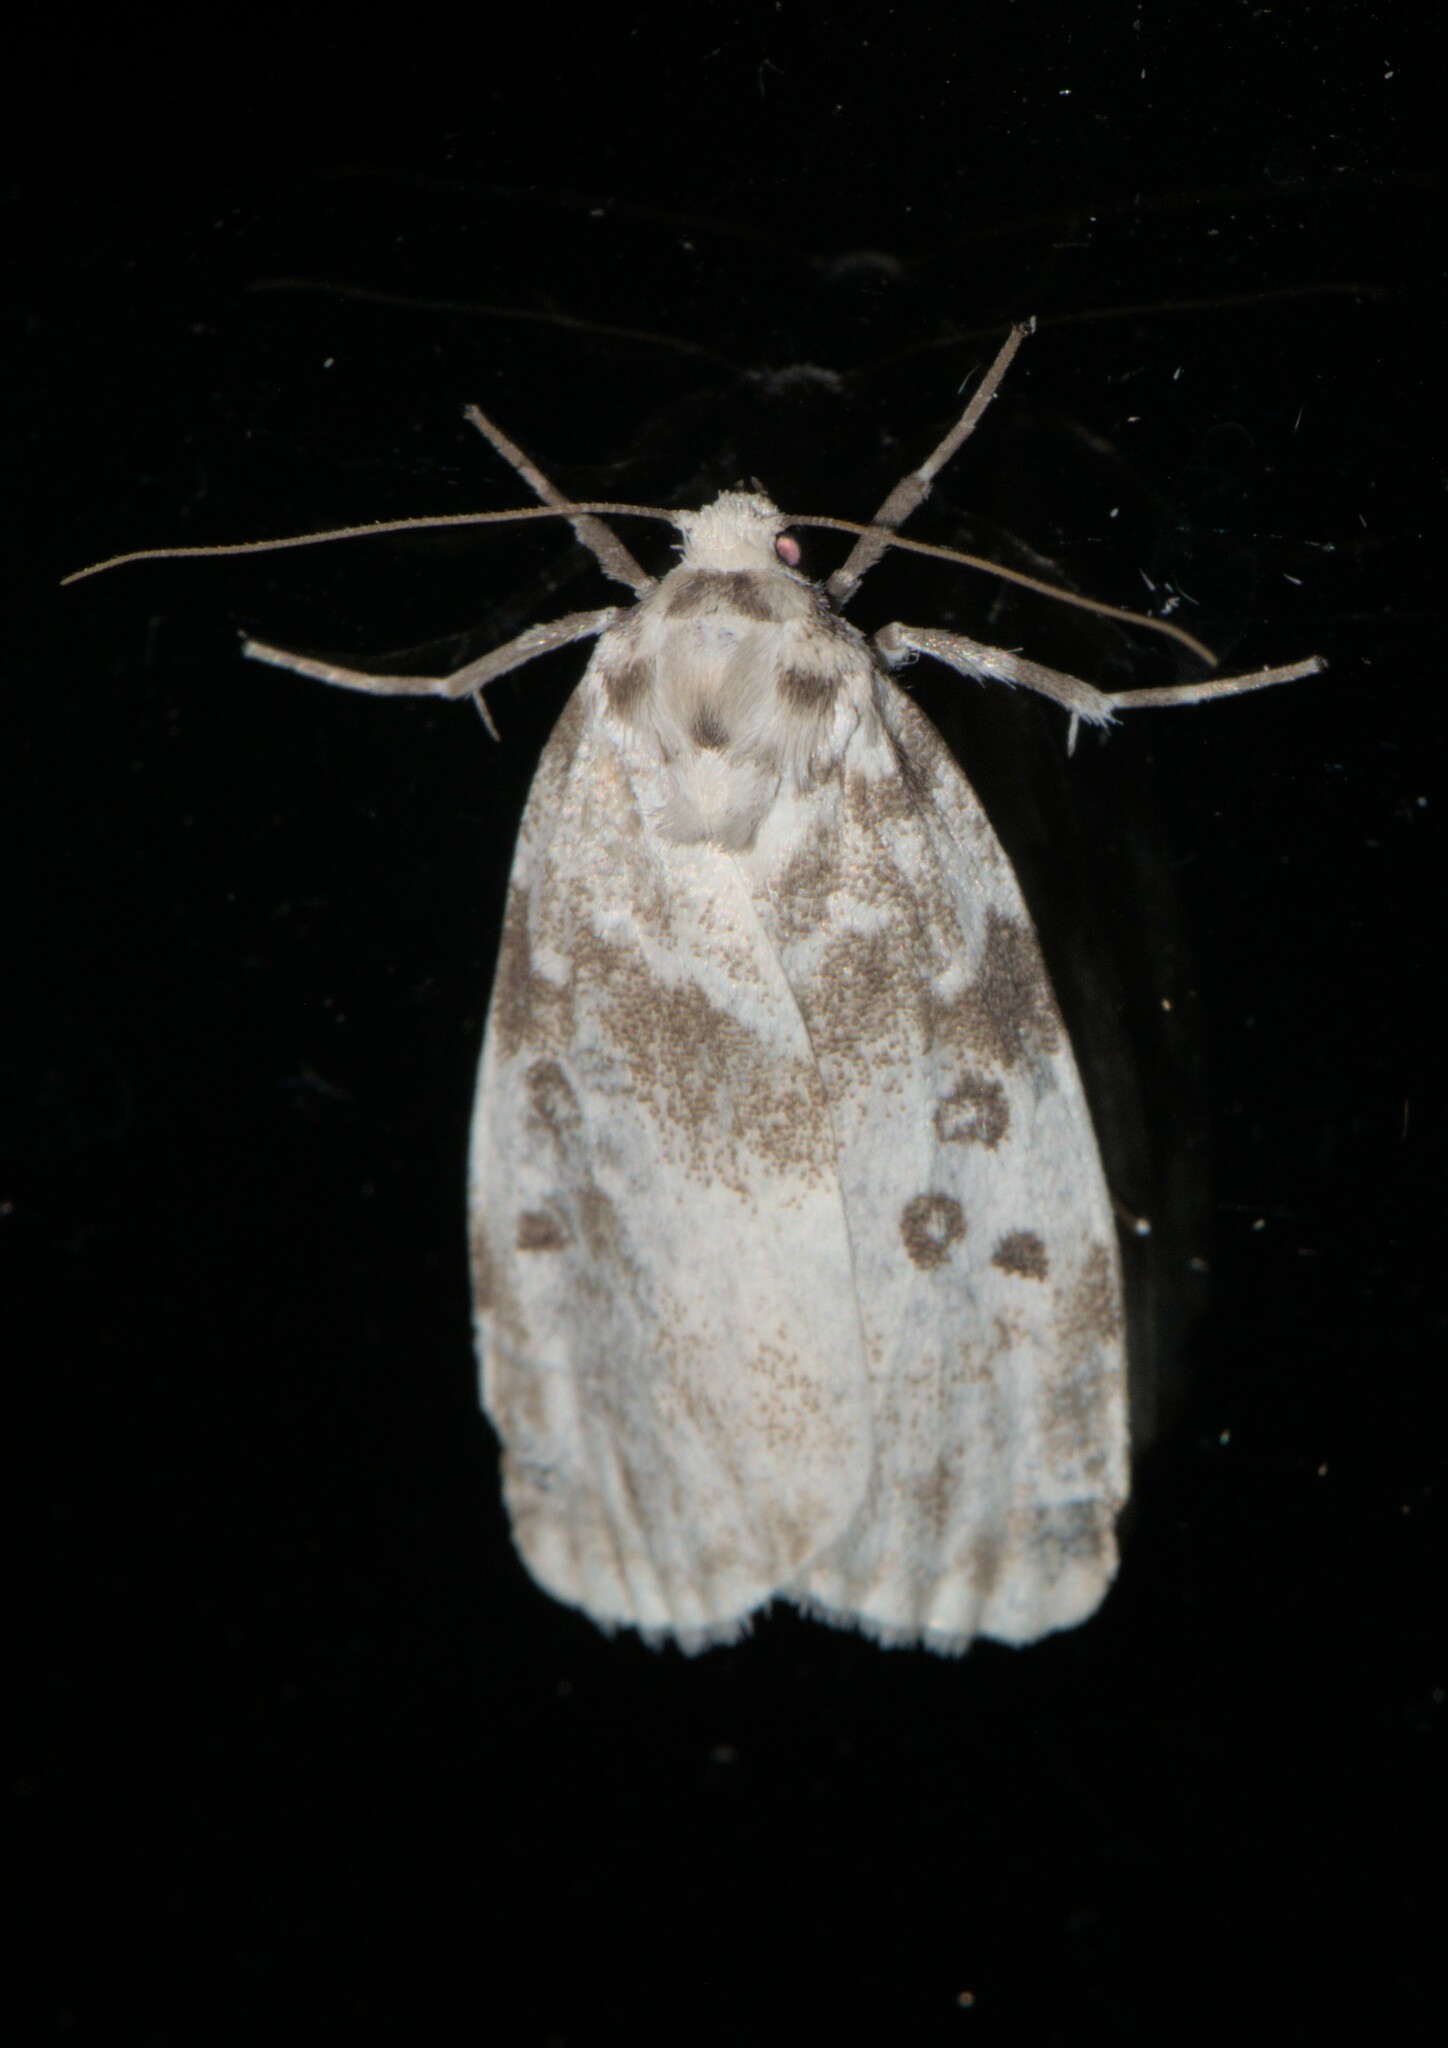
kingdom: Animalia
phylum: Arthropoda
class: Insecta
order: Lepidoptera
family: Erebidae
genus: Cyana
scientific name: Cyana detrita
